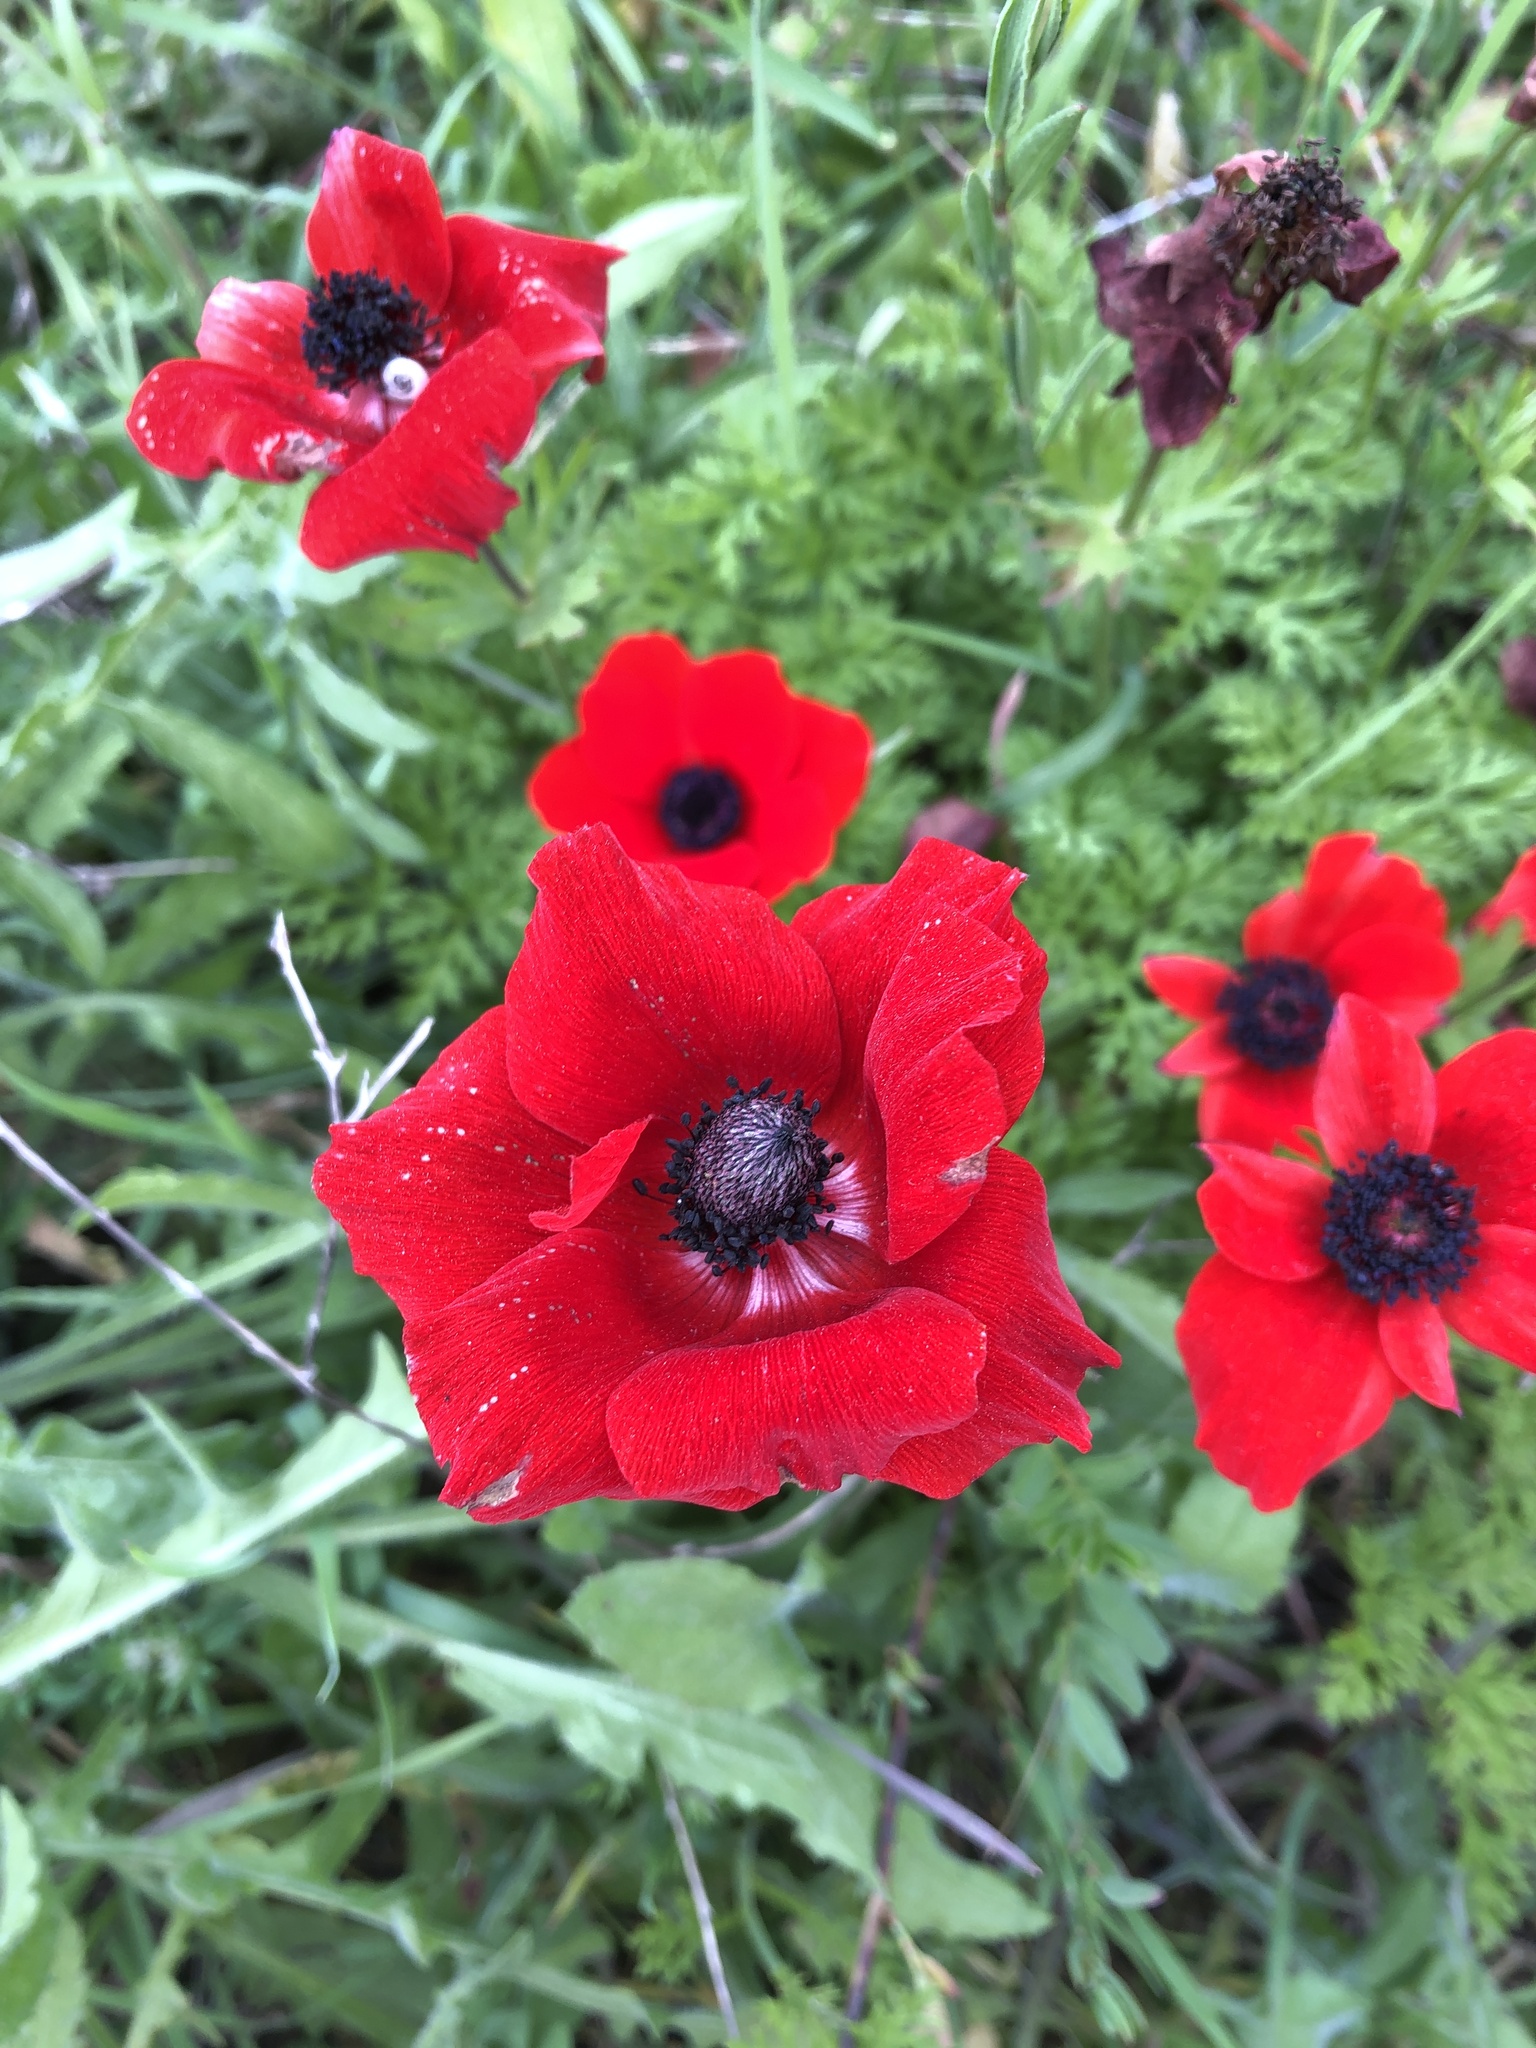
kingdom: Plantae
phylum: Tracheophyta
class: Magnoliopsida
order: Ranunculales
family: Ranunculaceae
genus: Anemone
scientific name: Anemone coronaria
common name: Poppy anemone
